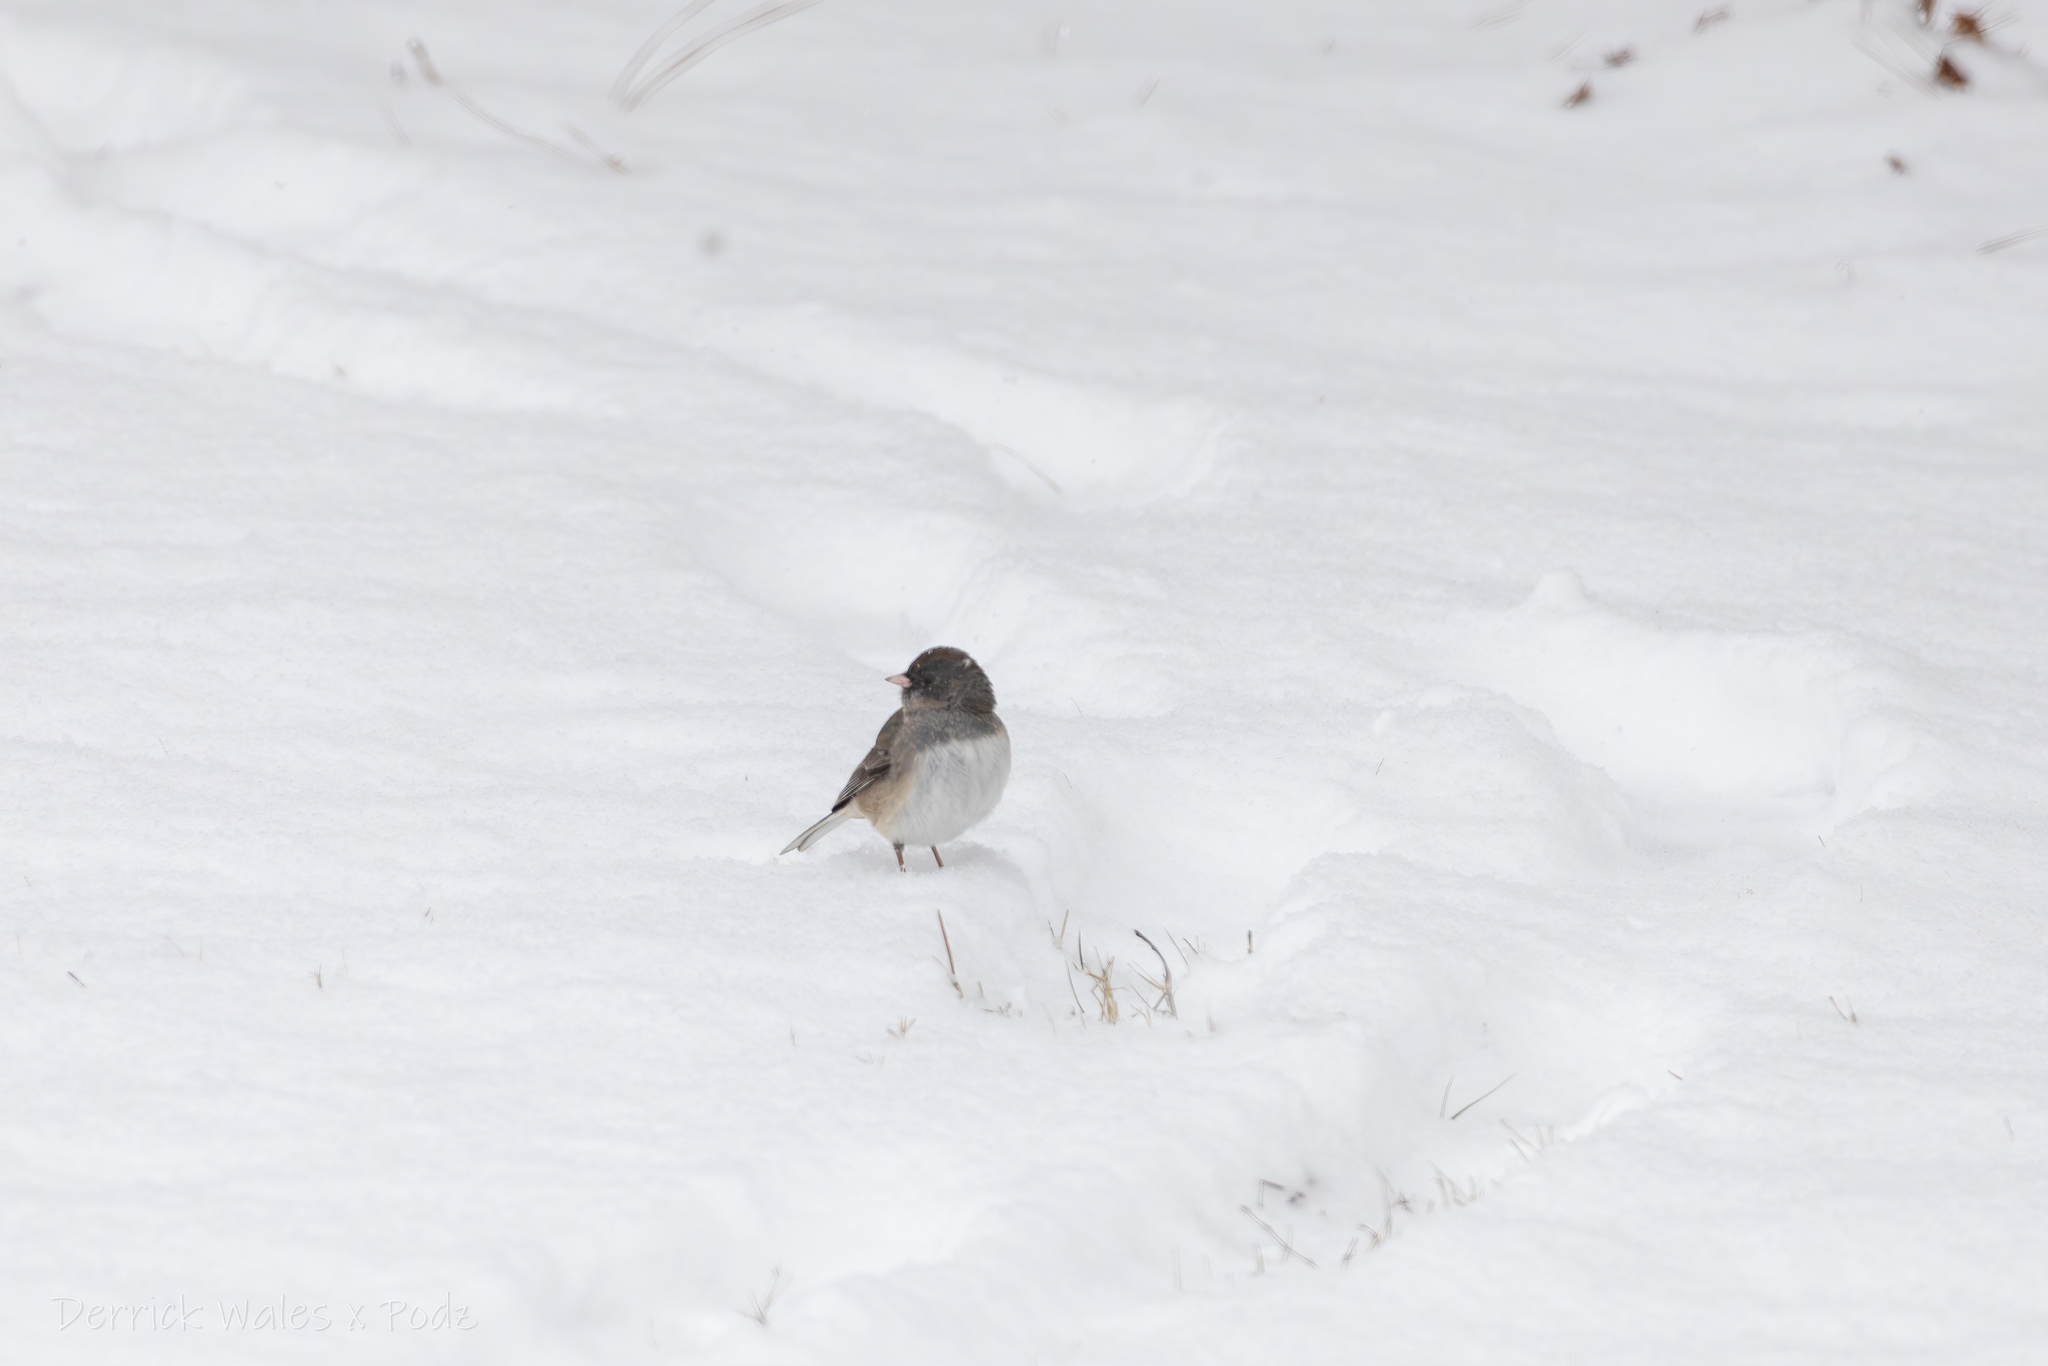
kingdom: Animalia
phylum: Chordata
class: Aves
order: Passeriformes
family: Passerellidae
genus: Junco
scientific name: Junco hyemalis
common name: Dark-eyed junco
